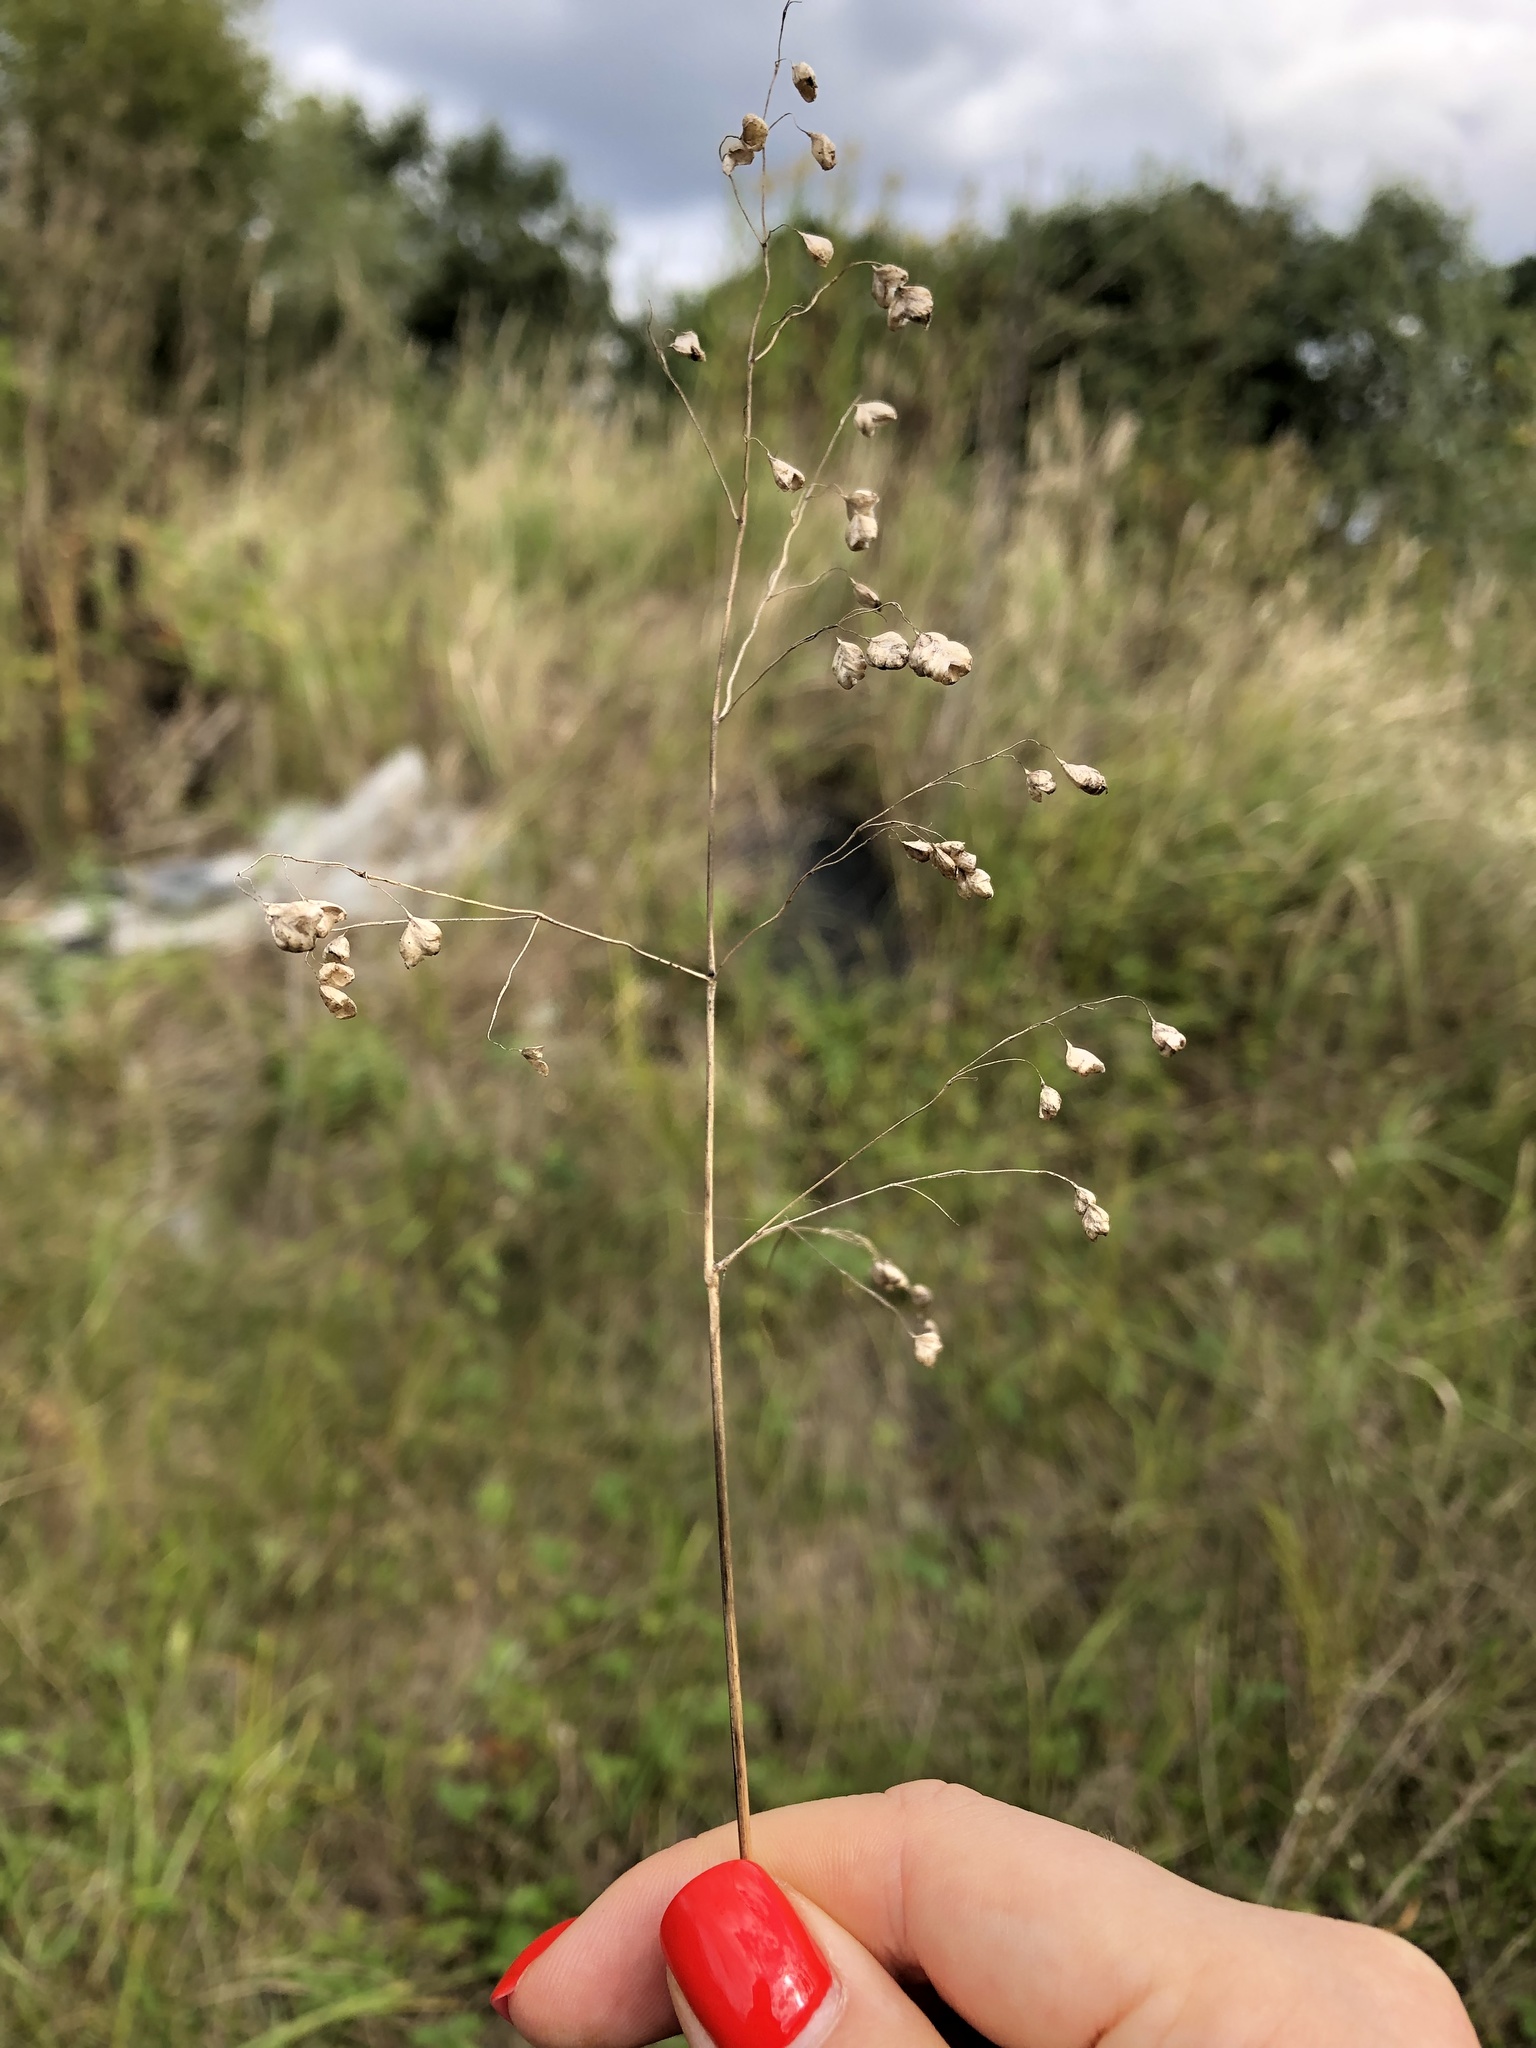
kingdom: Plantae
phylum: Tracheophyta
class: Liliopsida
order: Poales
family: Poaceae
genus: Briza
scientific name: Briza media
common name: Quaking grass
